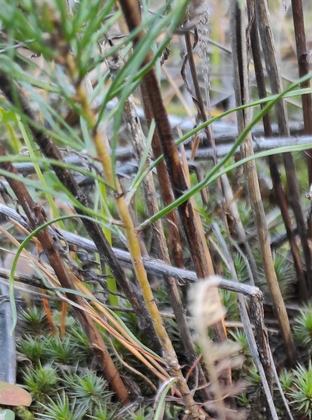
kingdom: Plantae
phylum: Tracheophyta
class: Pinopsida
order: Pinales
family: Pinaceae
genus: Pinus
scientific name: Pinus sylvestris
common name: Scots pine
